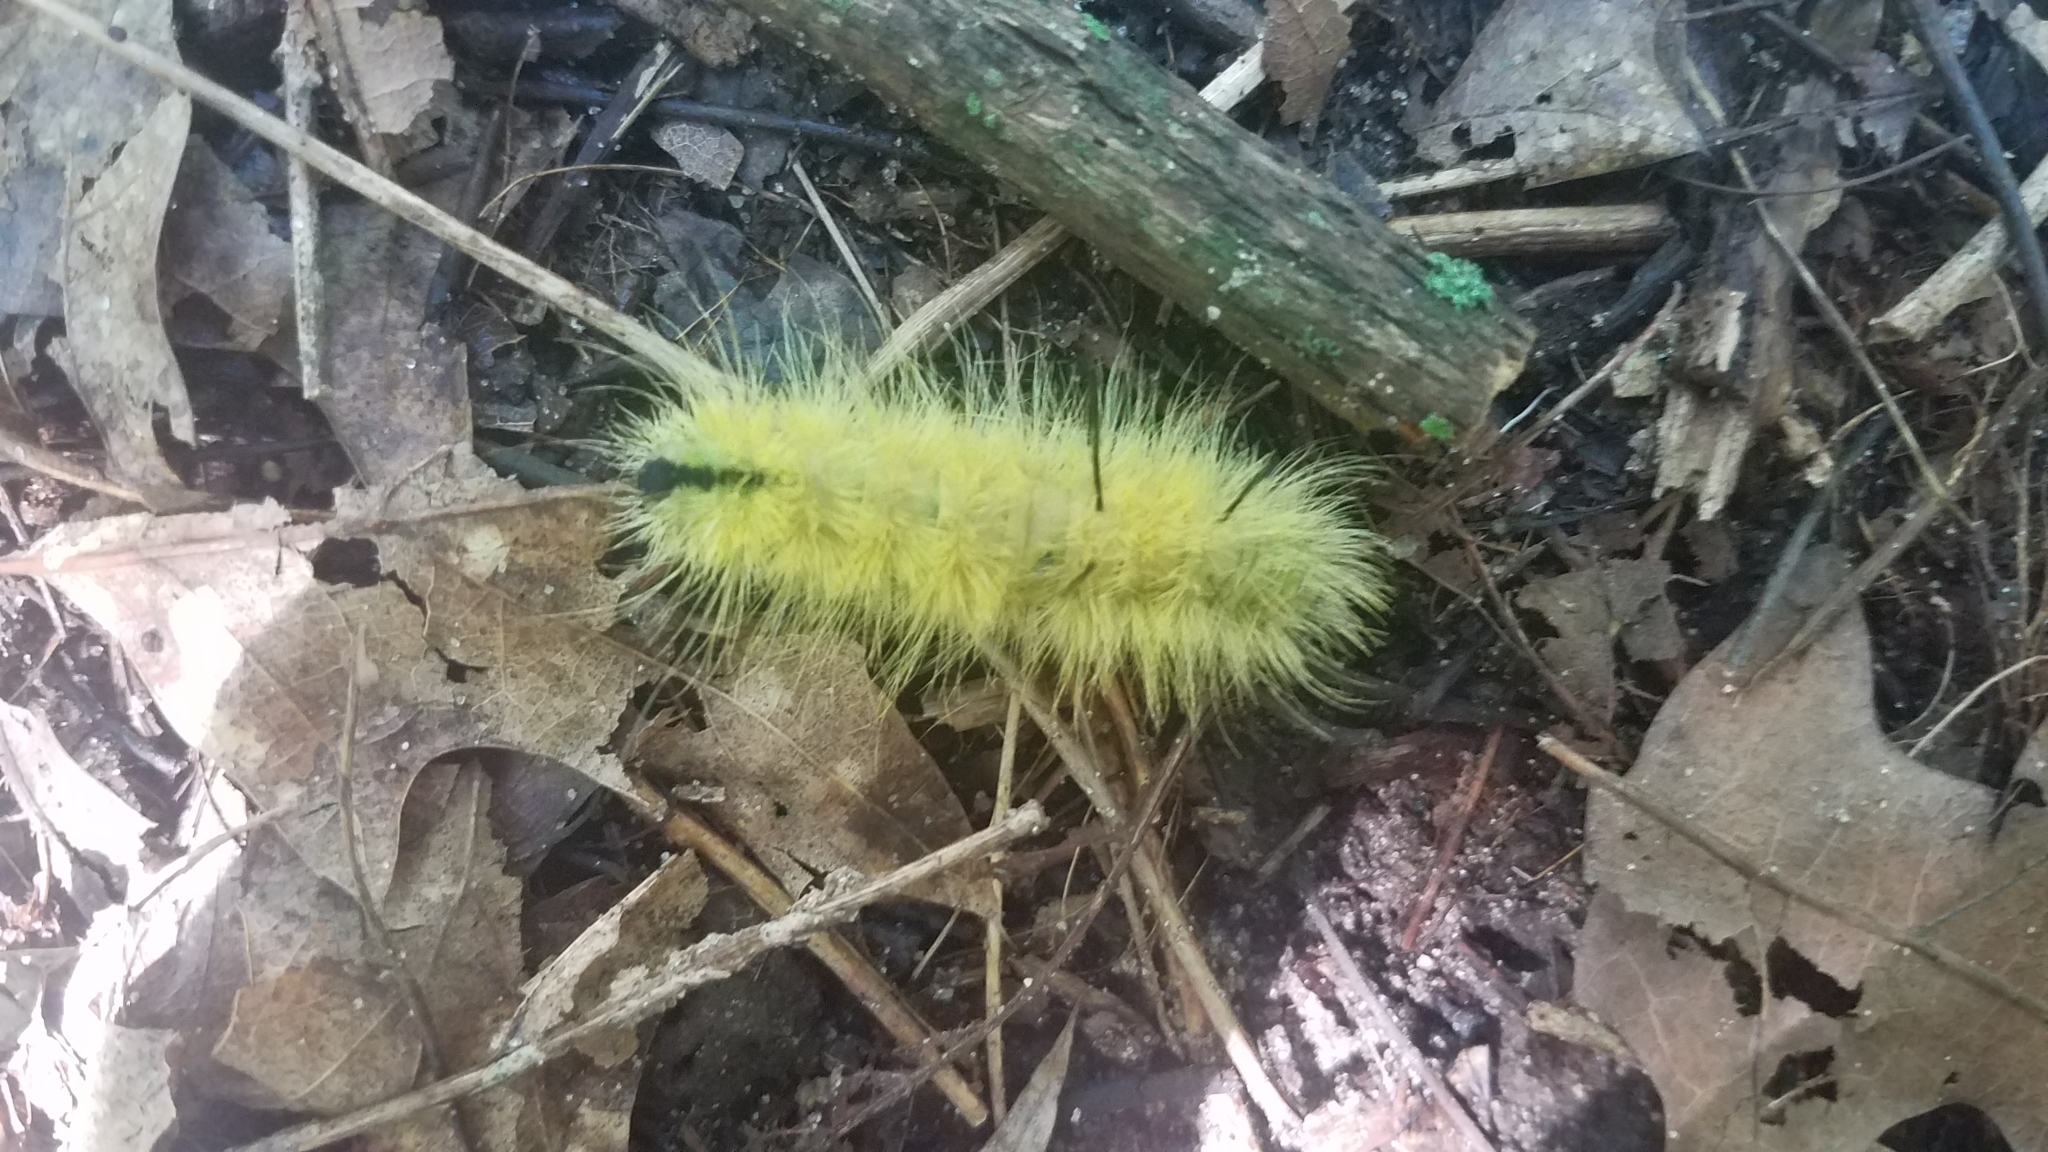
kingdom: Animalia
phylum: Arthropoda
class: Insecta
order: Lepidoptera
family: Noctuidae
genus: Acronicta
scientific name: Acronicta americana
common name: American dagger
